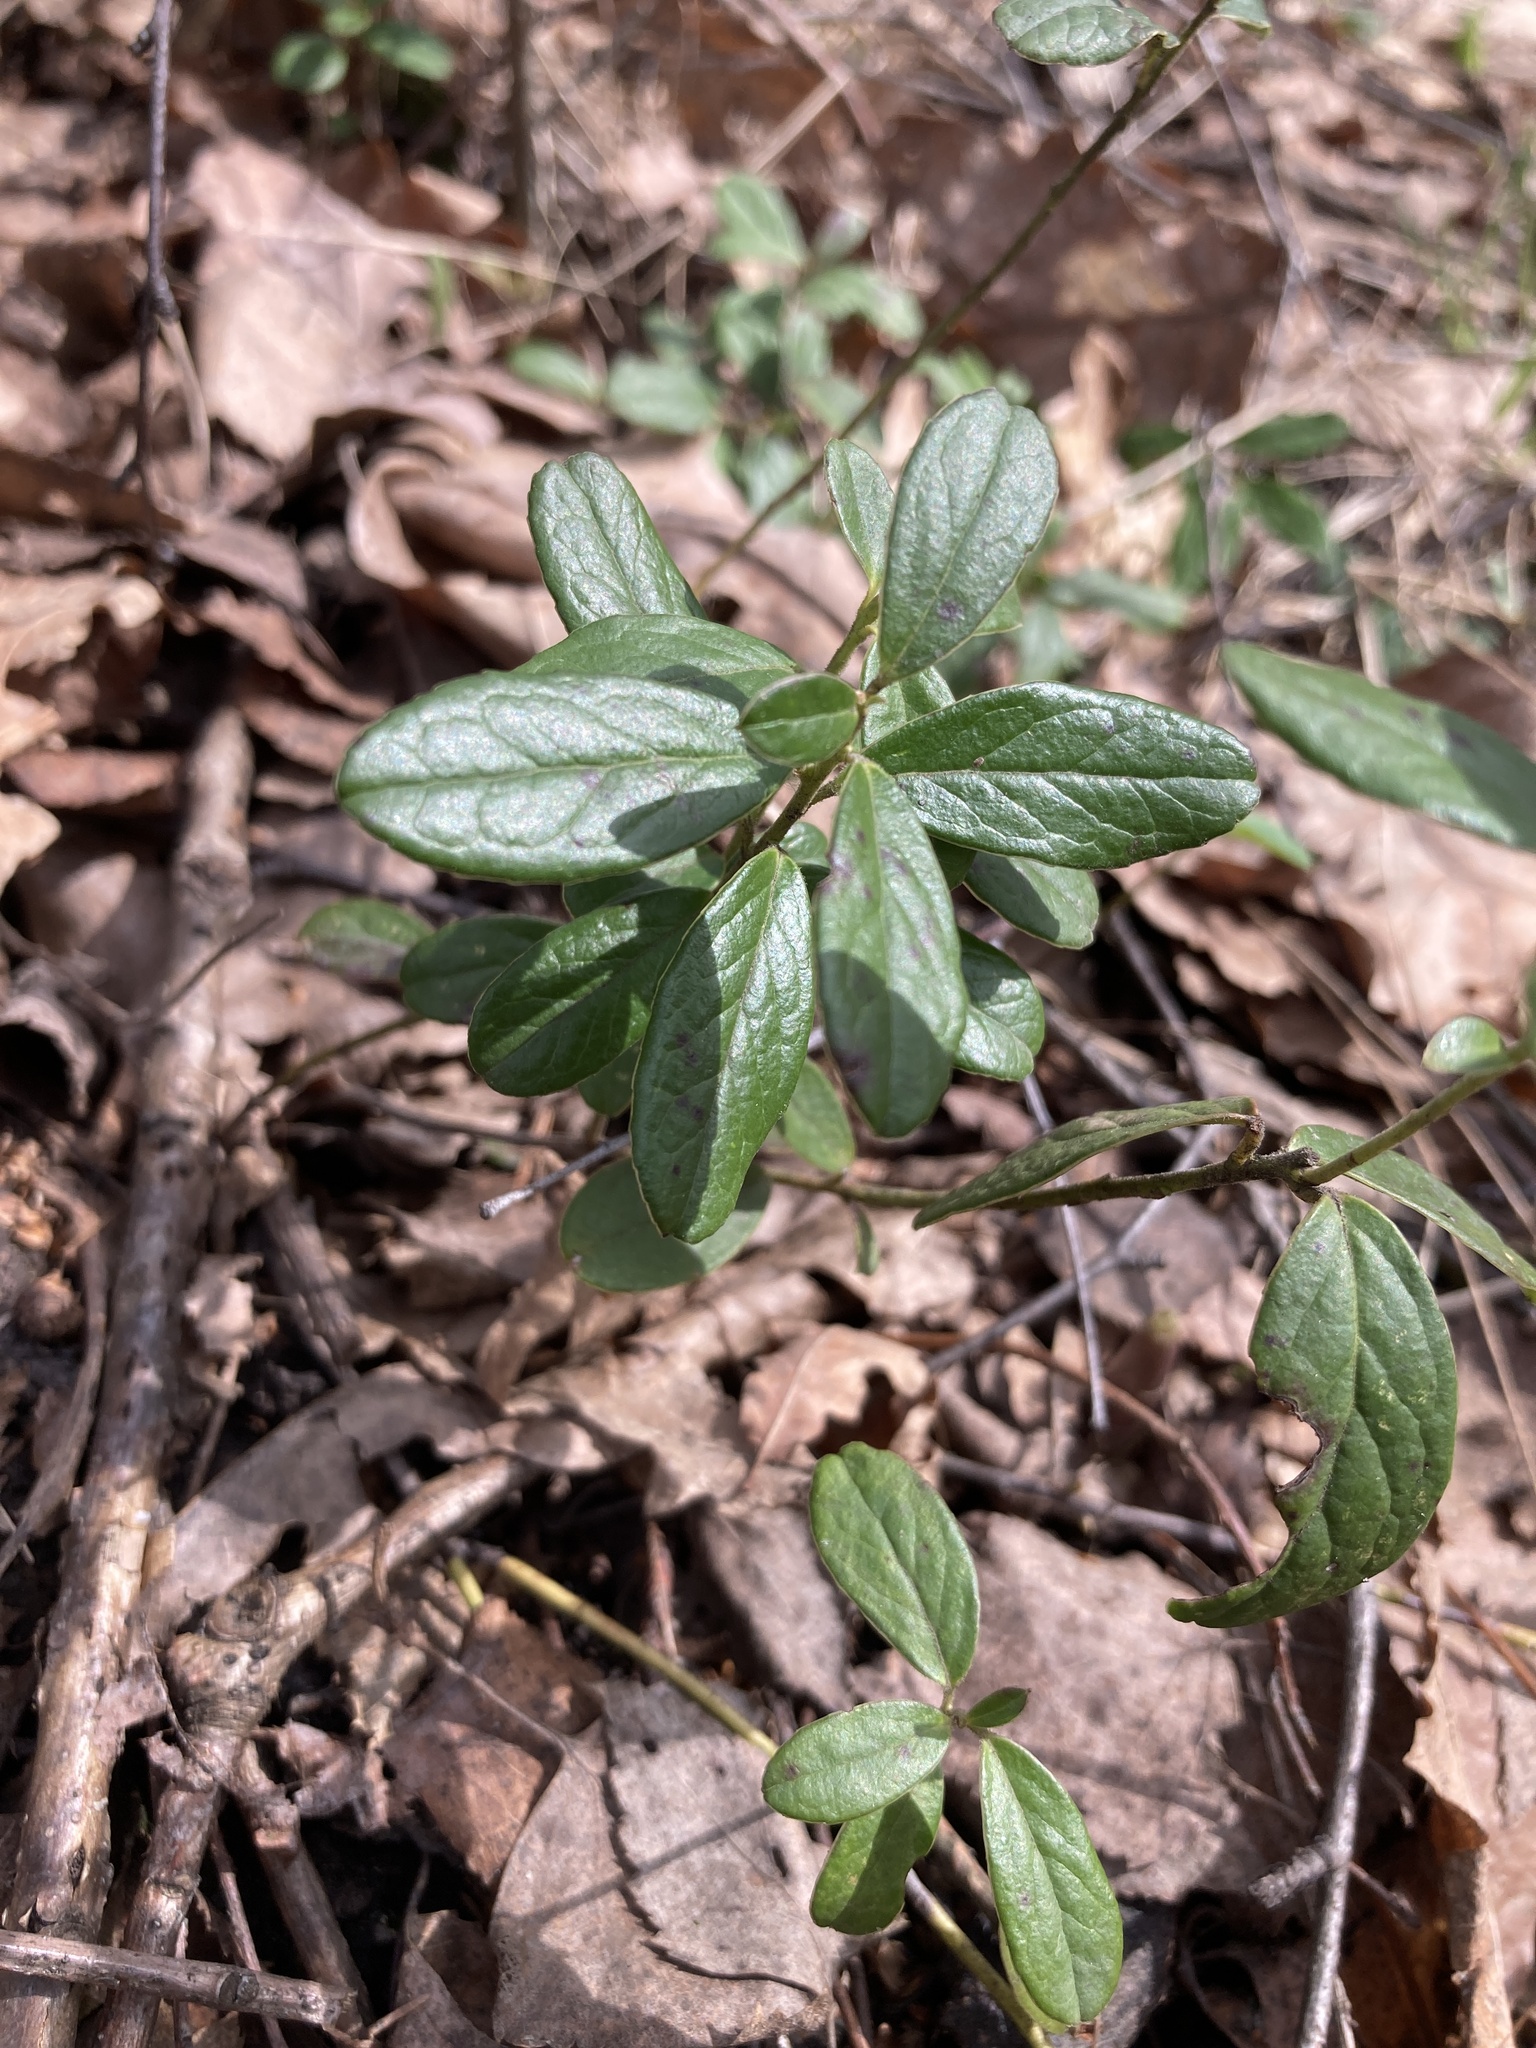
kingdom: Plantae
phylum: Tracheophyta
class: Magnoliopsida
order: Ericales
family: Ericaceae
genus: Vaccinium
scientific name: Vaccinium vitis-idaea
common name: Cowberry
